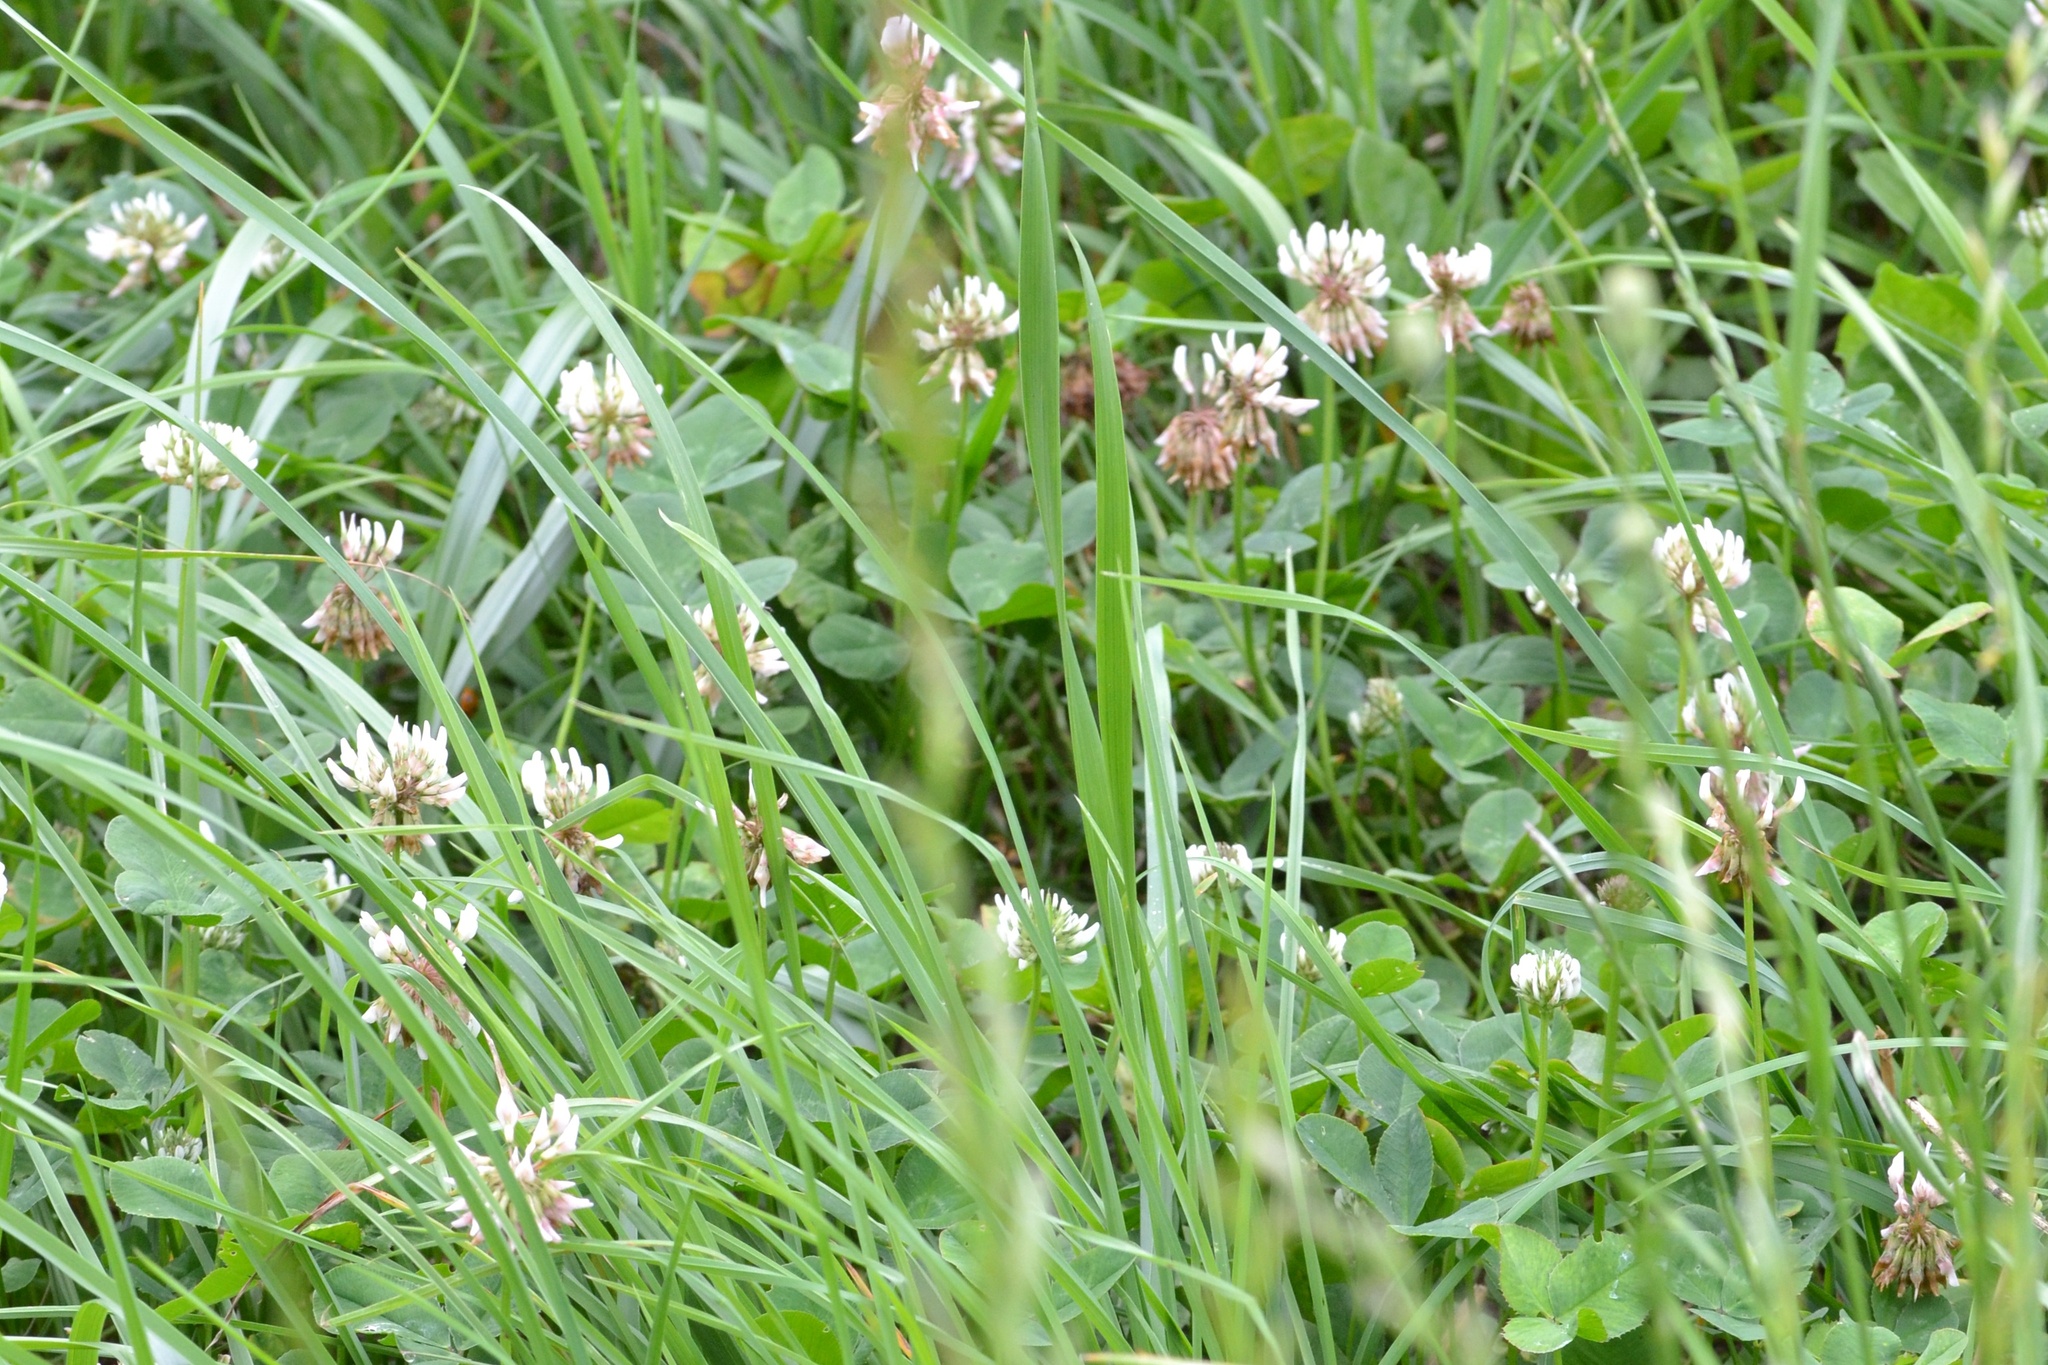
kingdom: Plantae
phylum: Tracheophyta
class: Magnoliopsida
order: Fabales
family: Fabaceae
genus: Trifolium
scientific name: Trifolium repens
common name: White clover
